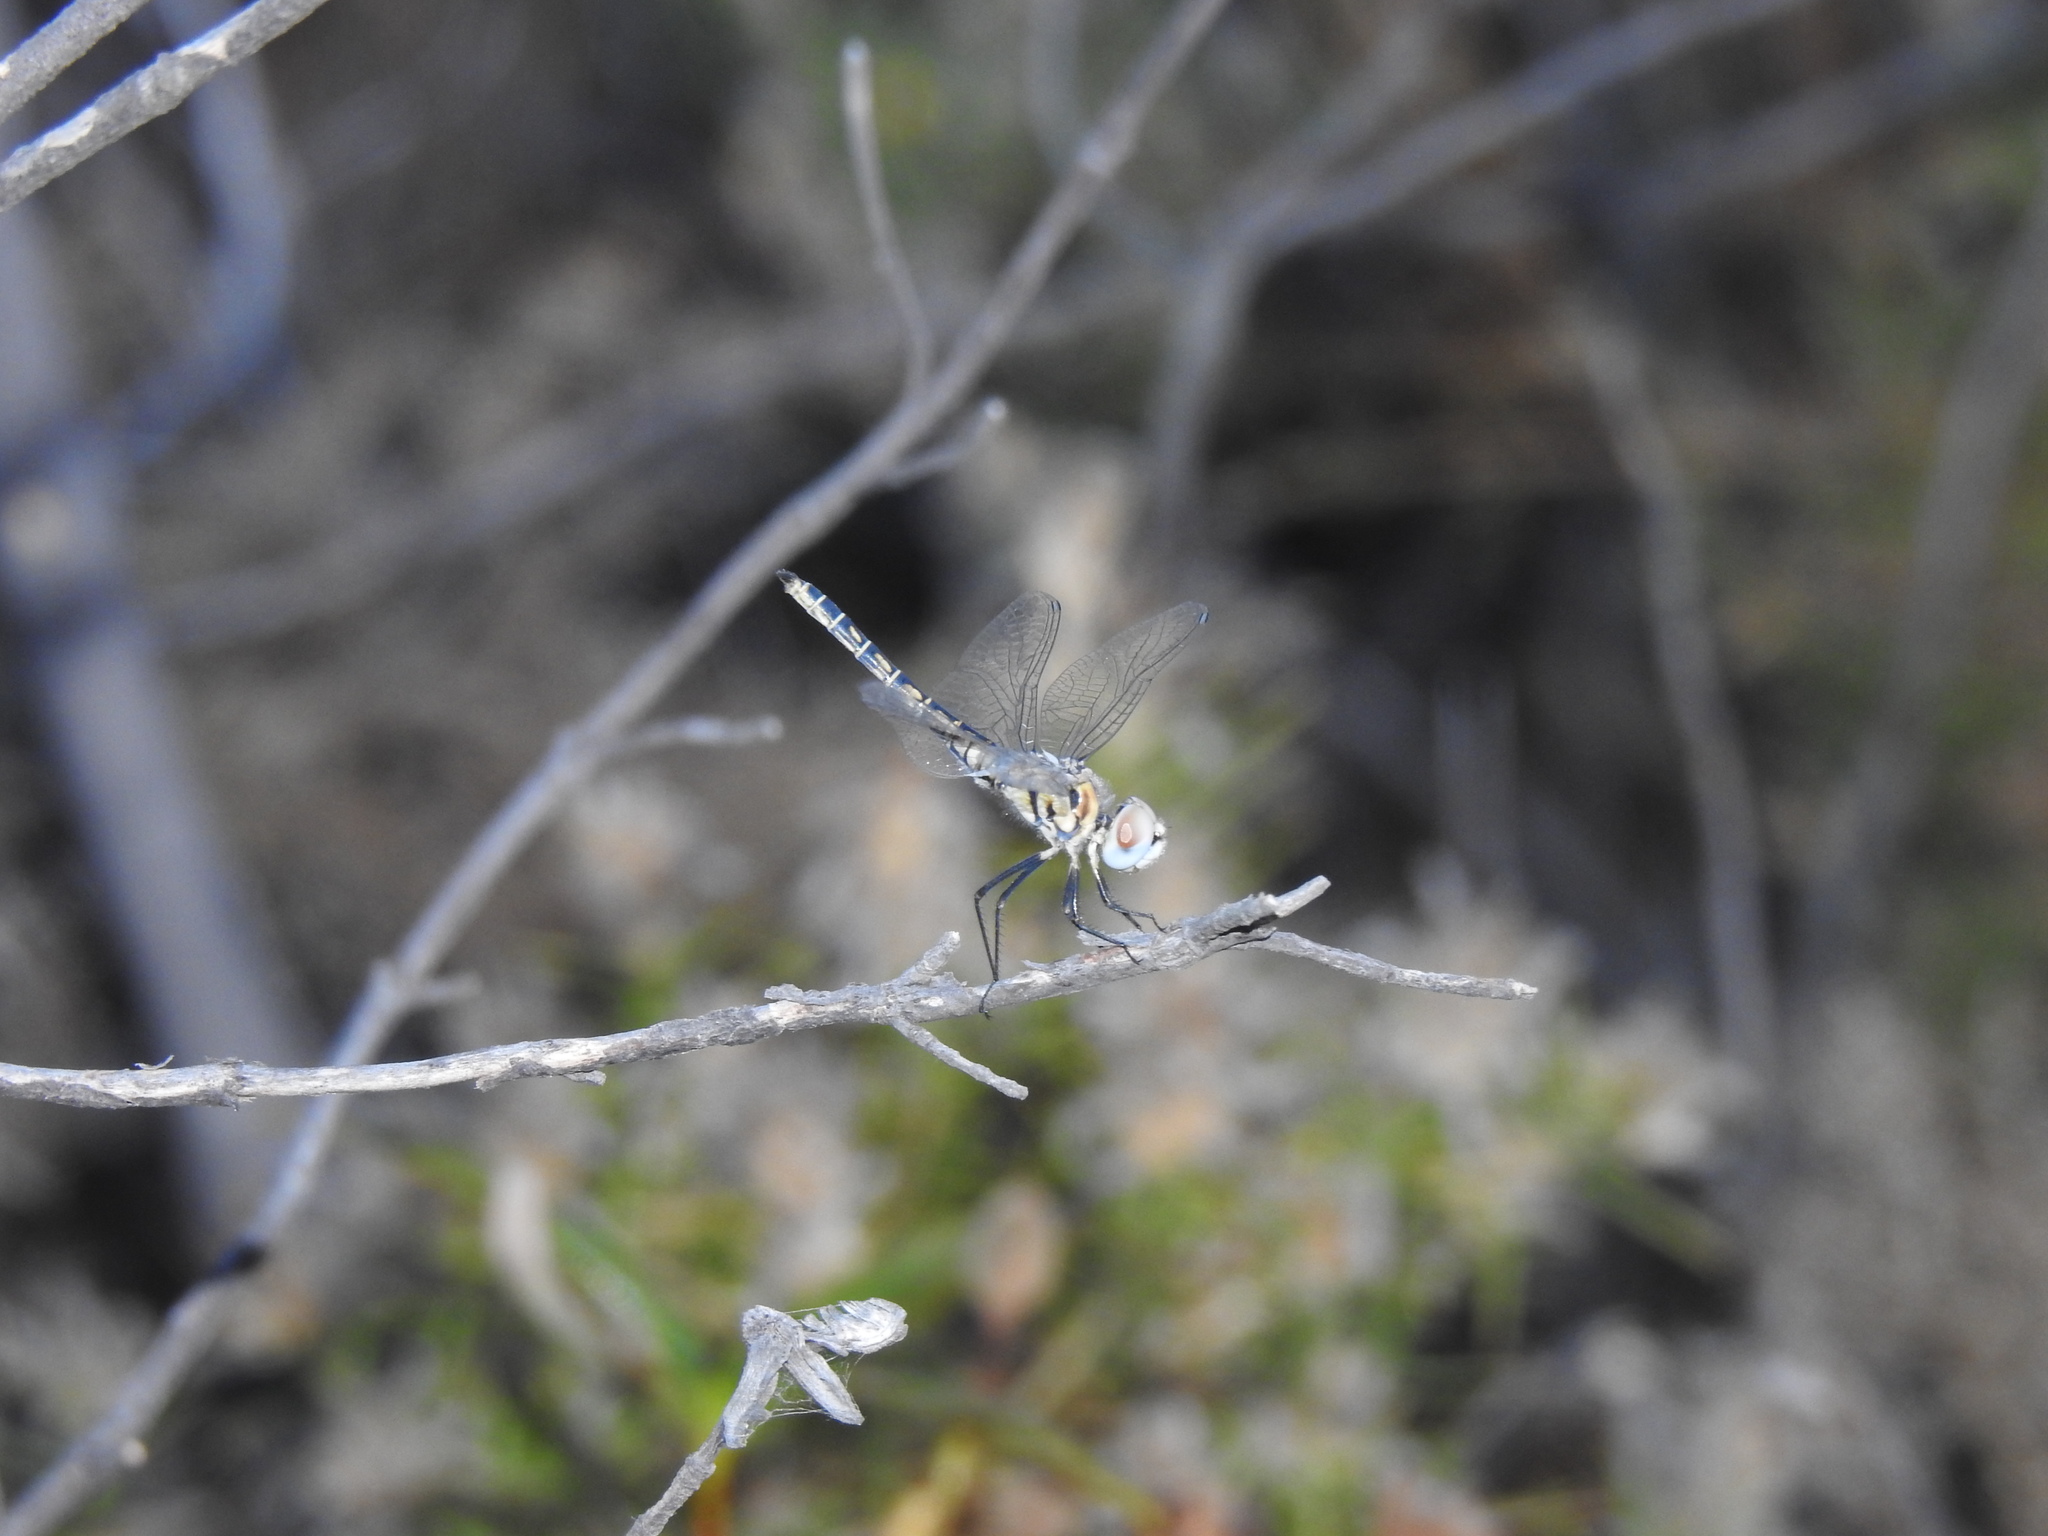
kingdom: Animalia
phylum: Arthropoda
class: Insecta
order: Odonata
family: Libellulidae
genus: Selysiothemis
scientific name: Selysiothemis nigra
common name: Black pennant
